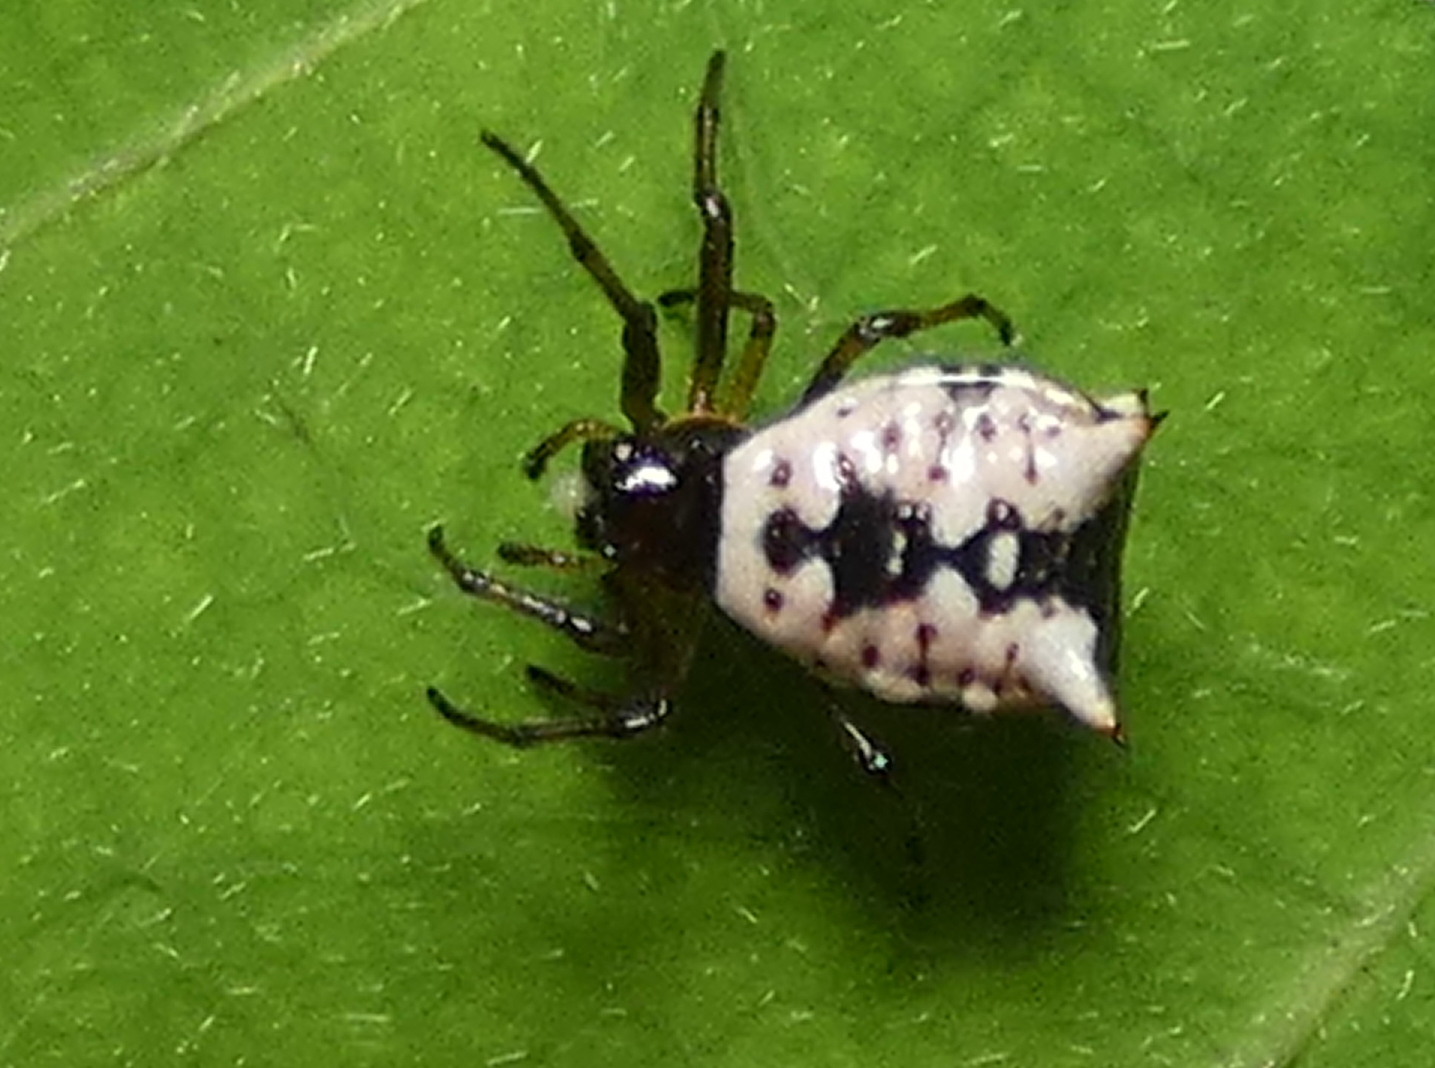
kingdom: Animalia
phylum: Arthropoda
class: Arachnida
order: Araneae
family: Araneidae
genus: Micrathena
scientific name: Micrathena patruelis
